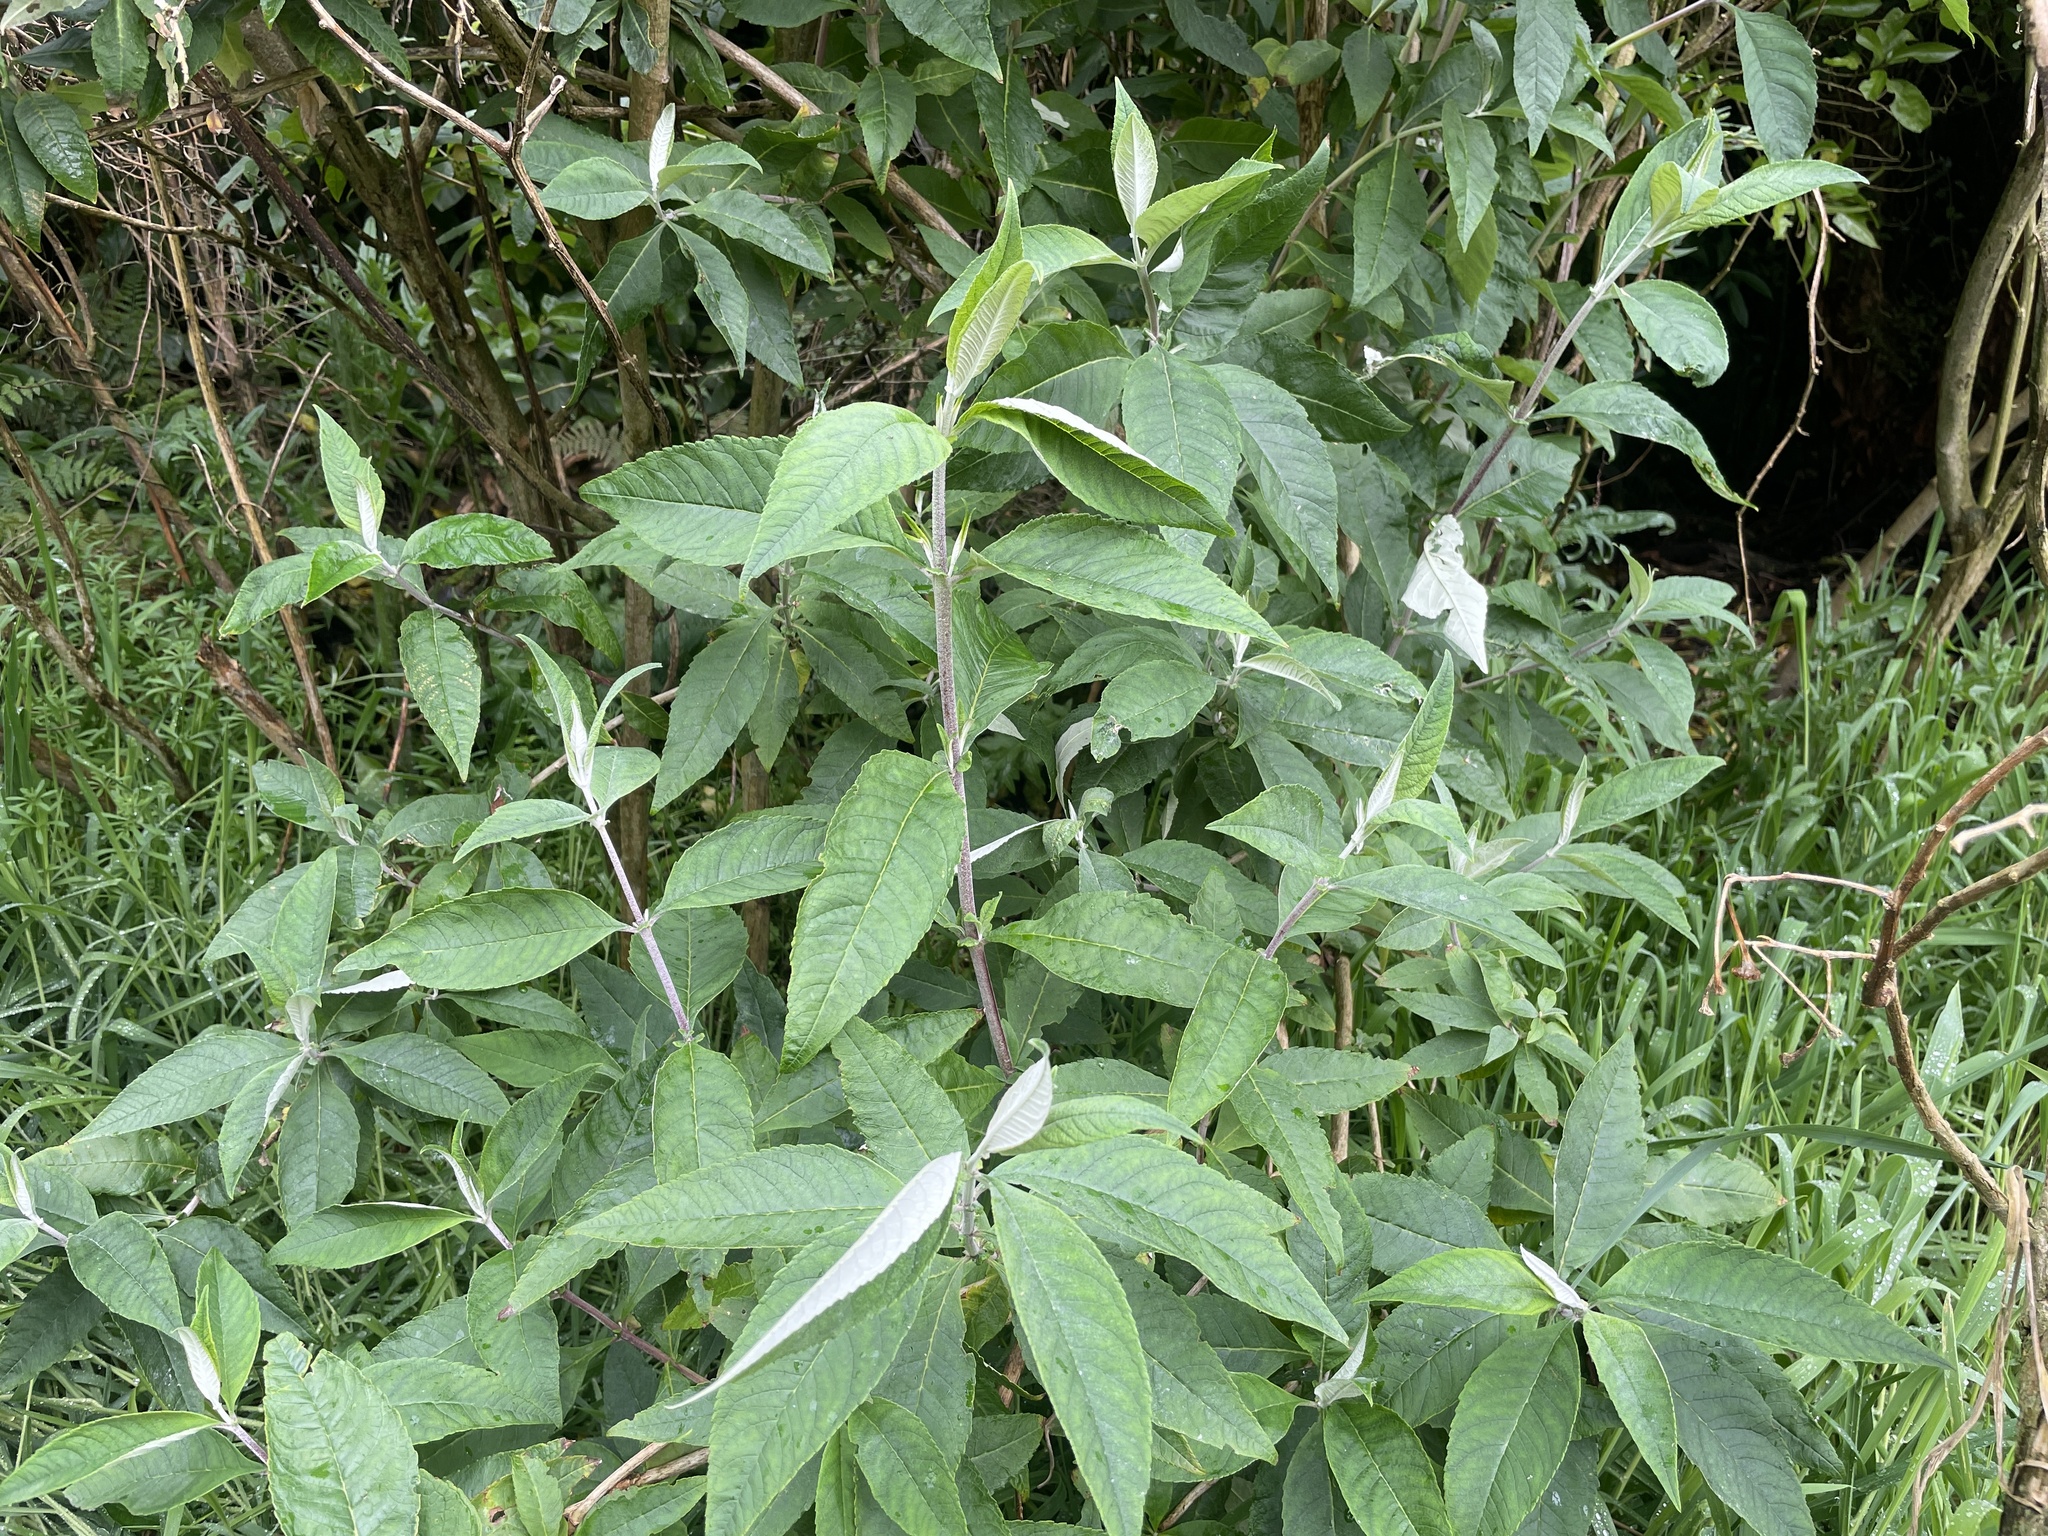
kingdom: Plantae
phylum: Tracheophyta
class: Magnoliopsida
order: Lamiales
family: Scrophulariaceae
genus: Buddleja
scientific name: Buddleja davidii
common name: Butterfly-bush
